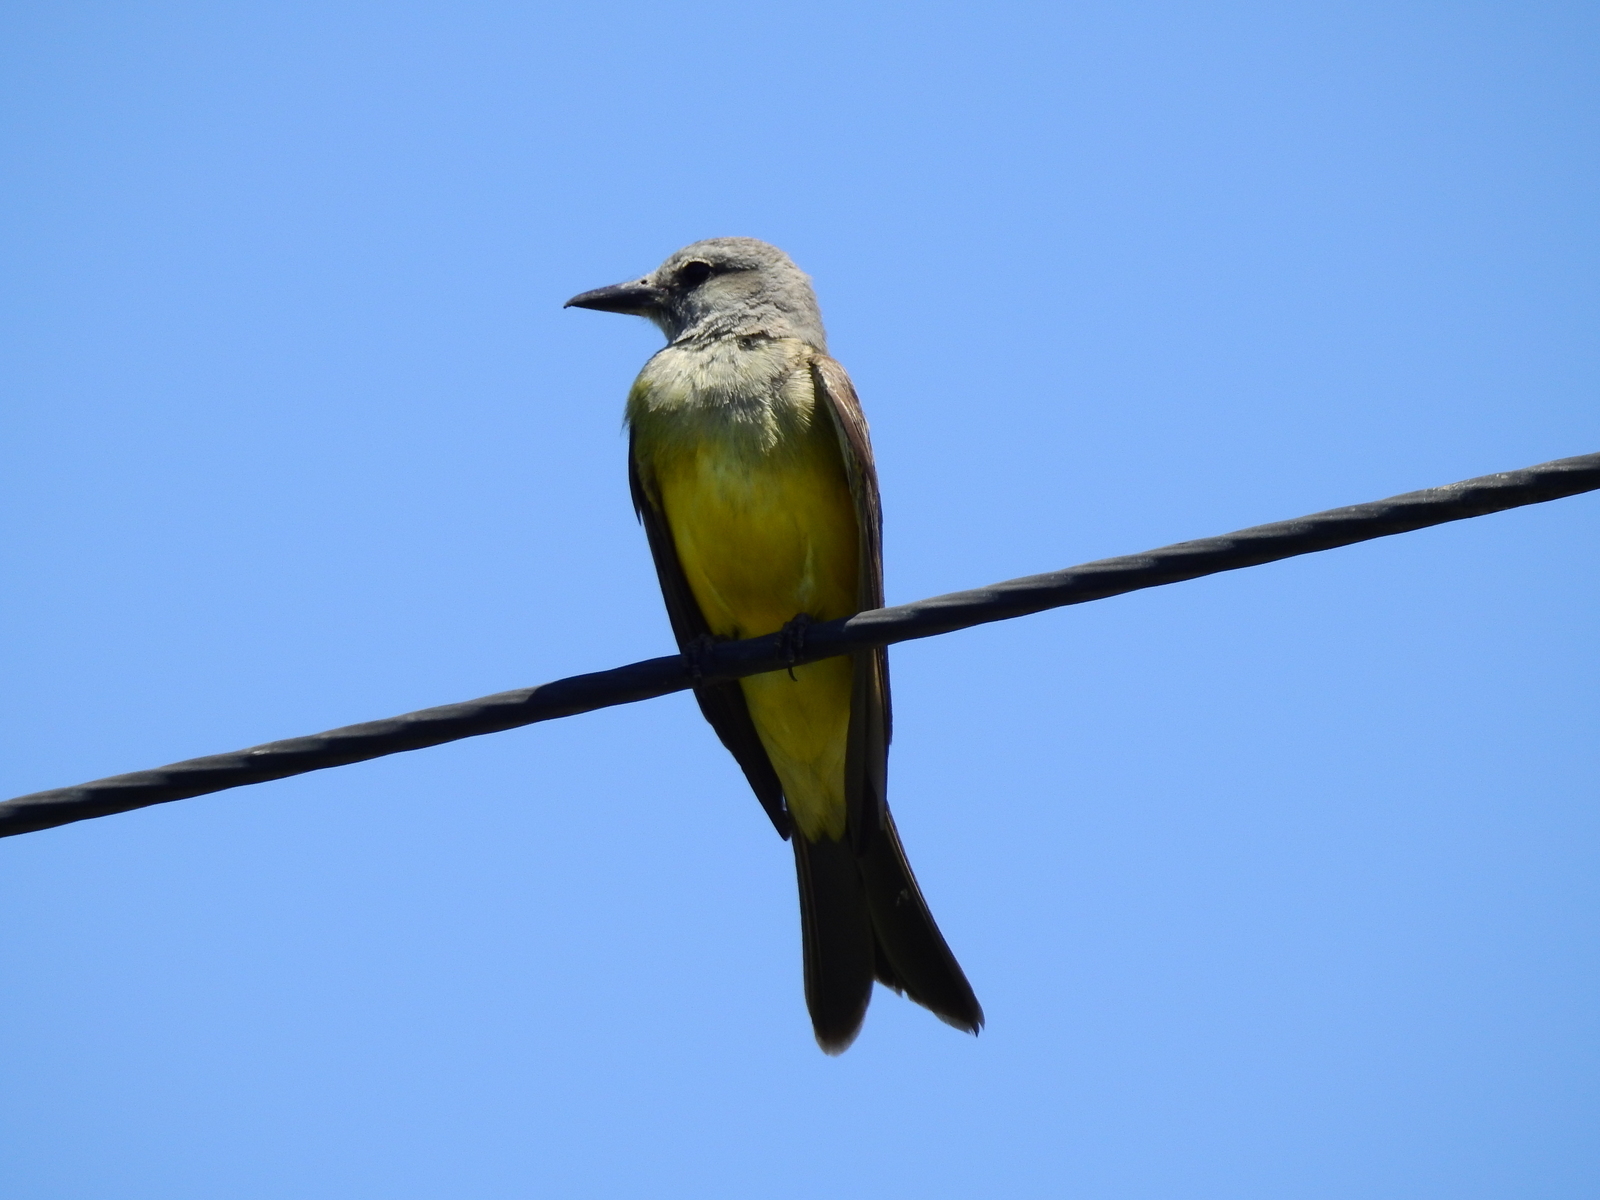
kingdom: Animalia
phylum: Chordata
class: Aves
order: Passeriformes
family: Tyrannidae
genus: Tyrannus
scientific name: Tyrannus melancholicus
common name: Tropical kingbird
